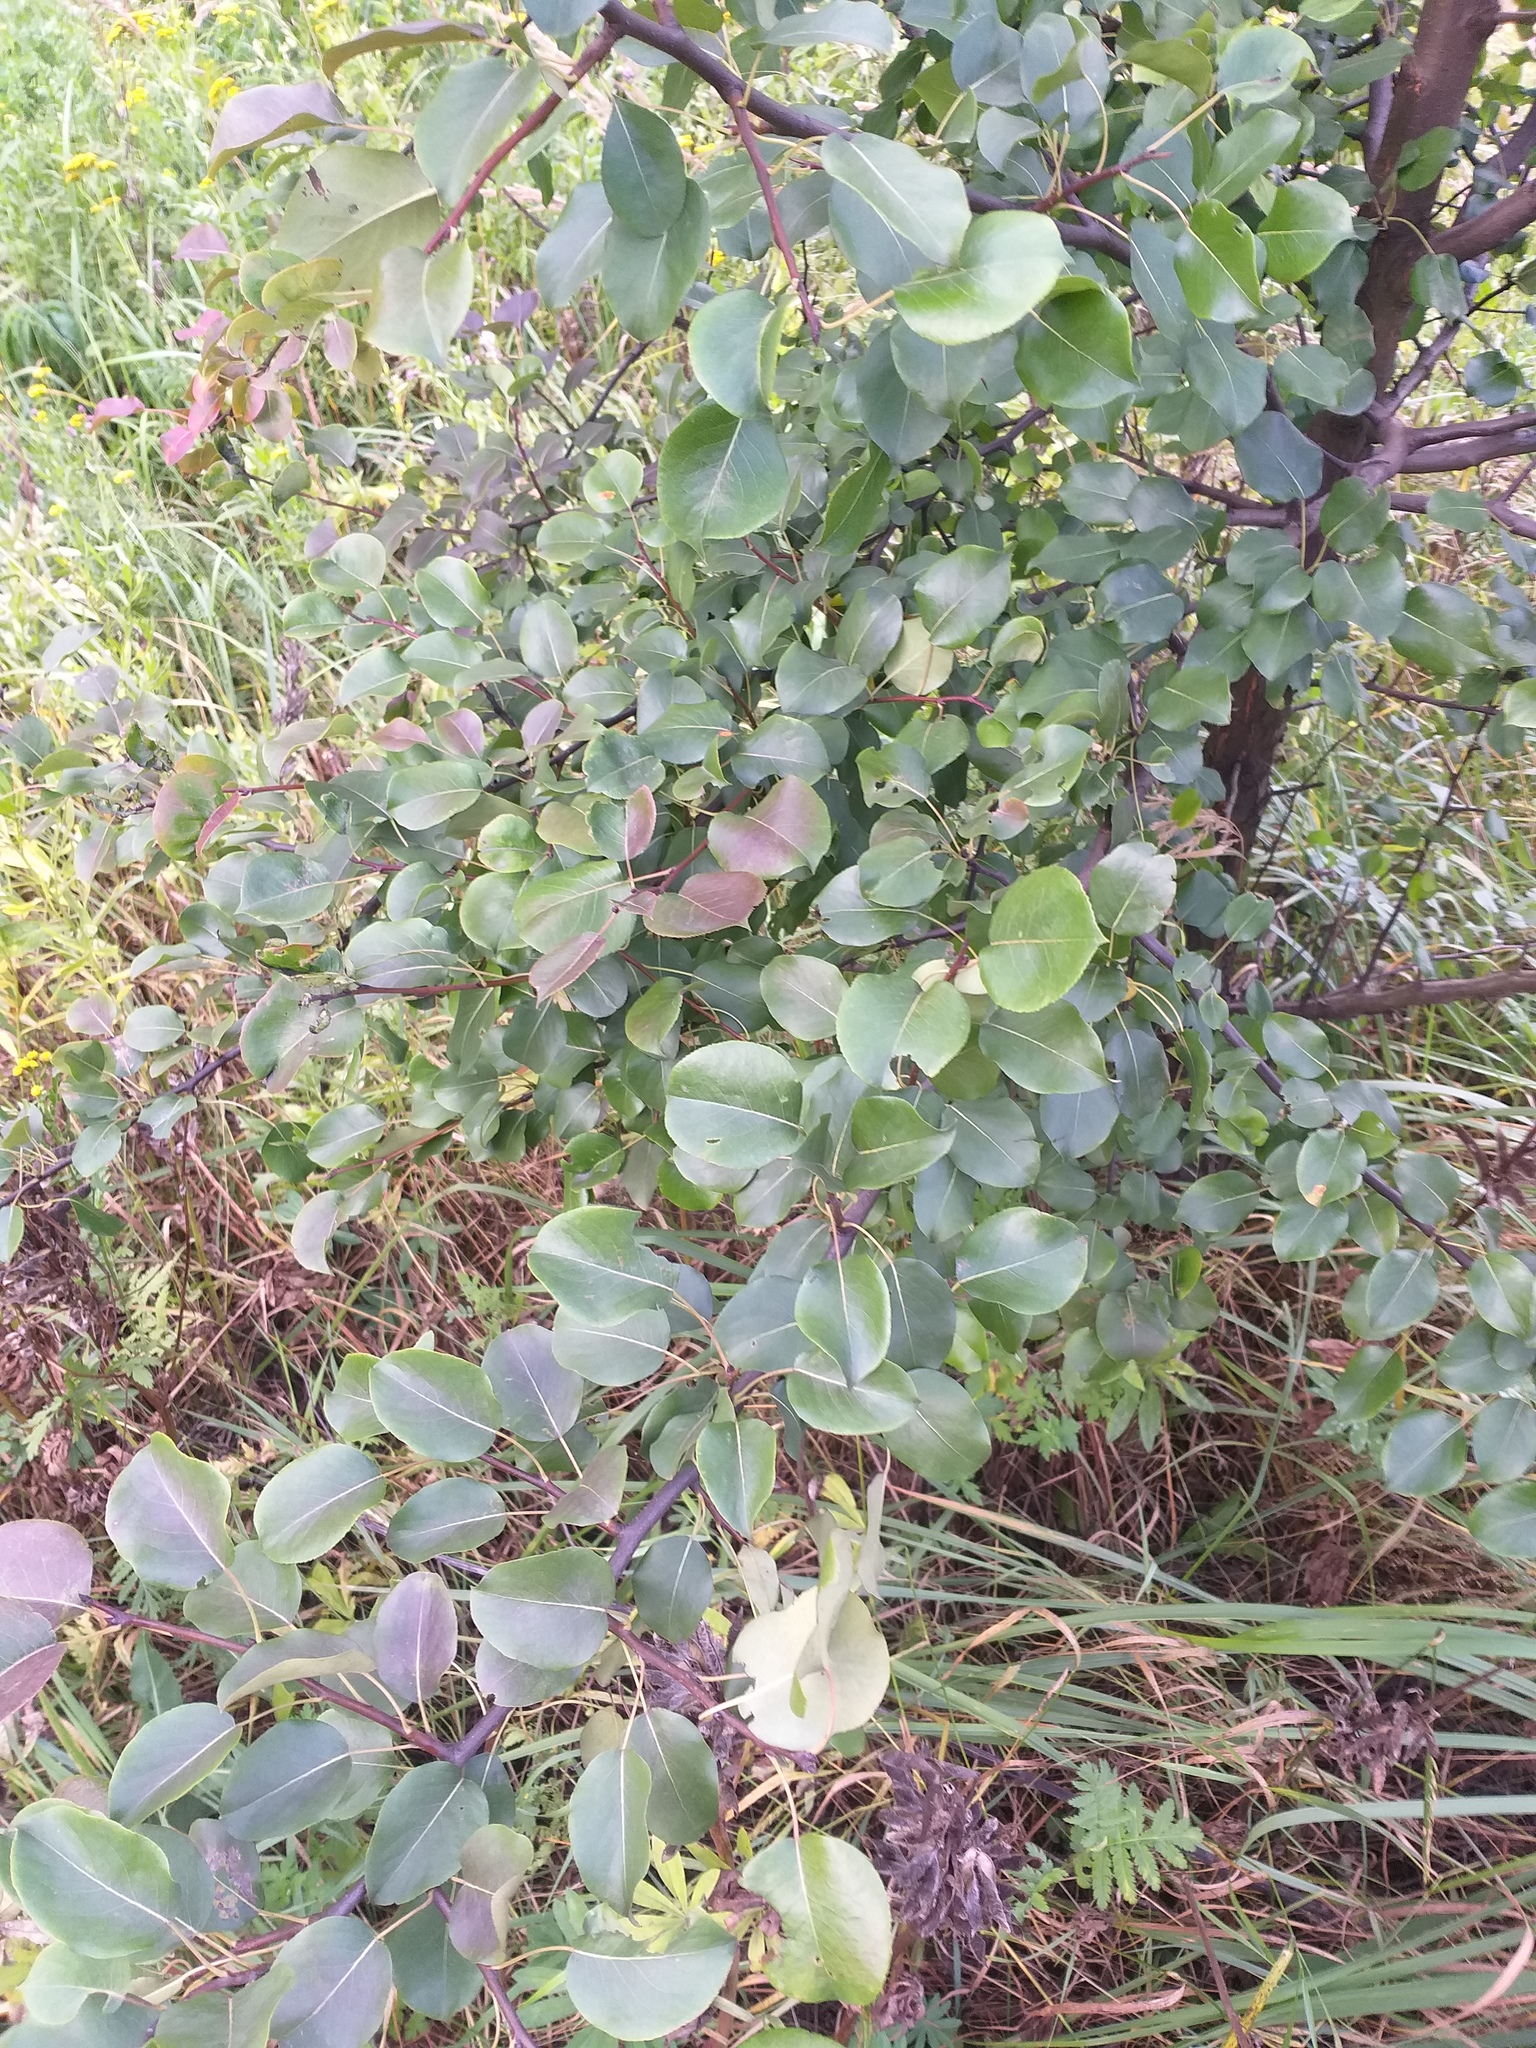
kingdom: Plantae
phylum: Tracheophyta
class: Magnoliopsida
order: Rosales
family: Rosaceae
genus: Pyrus
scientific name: Pyrus communis
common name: Pear
